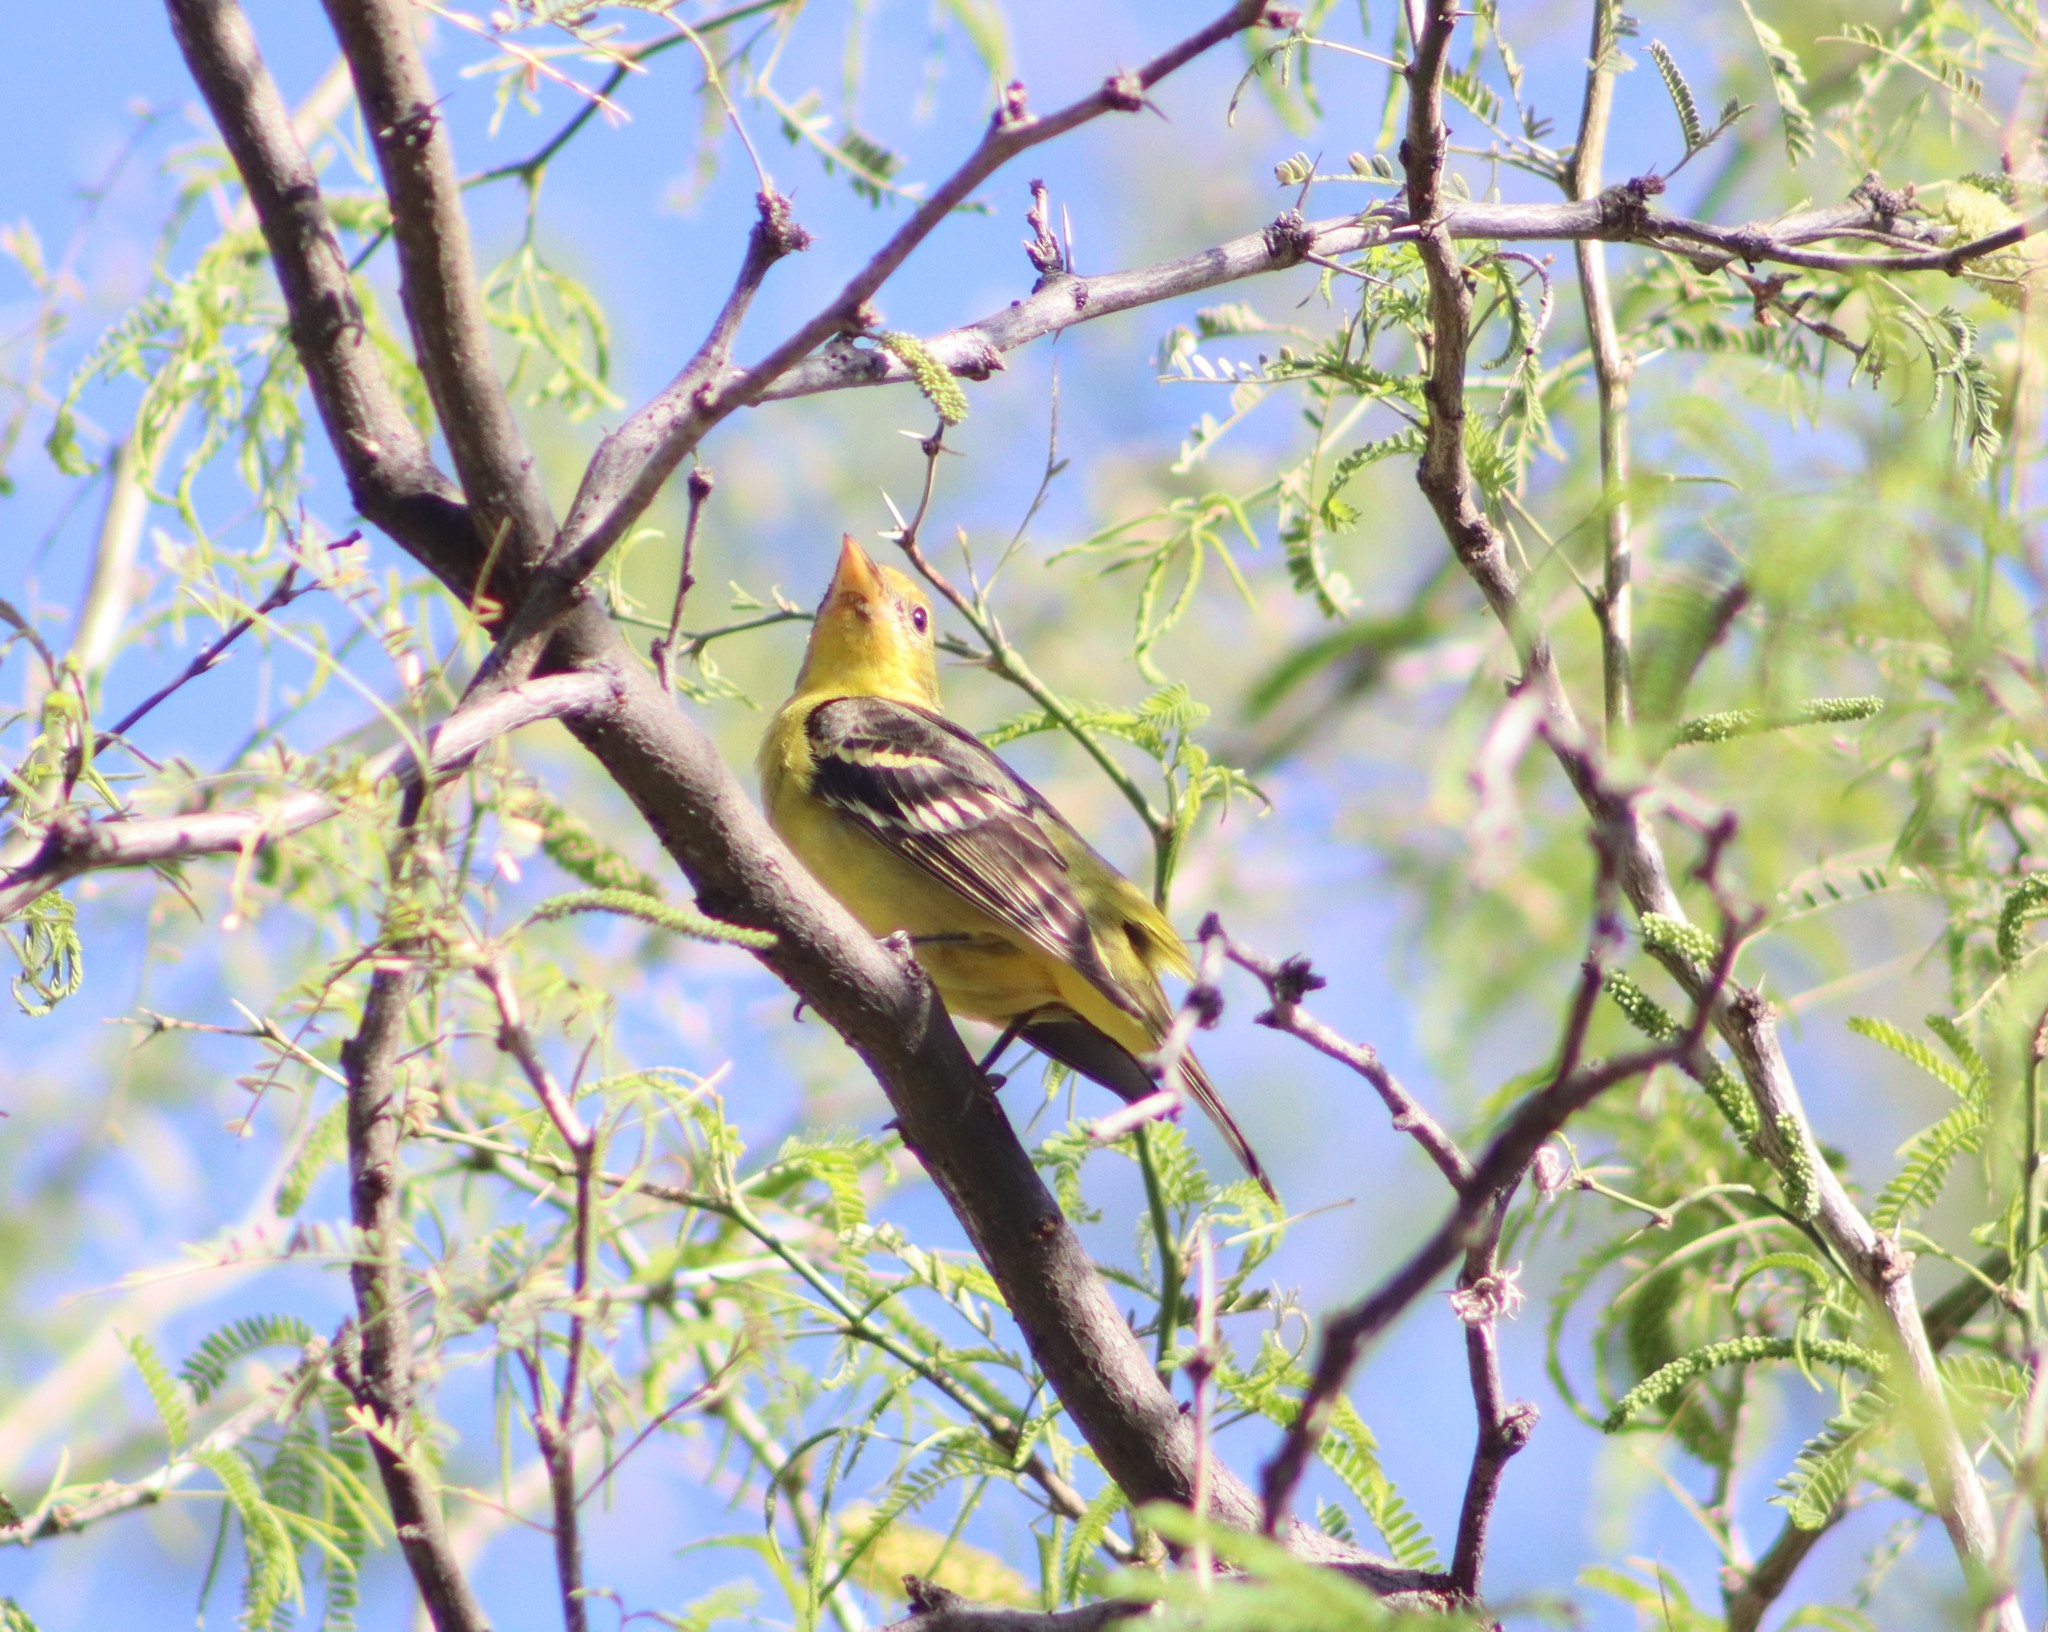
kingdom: Animalia
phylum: Chordata
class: Aves
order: Passeriformes
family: Cardinalidae
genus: Piranga
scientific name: Piranga ludoviciana
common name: Western tanager
